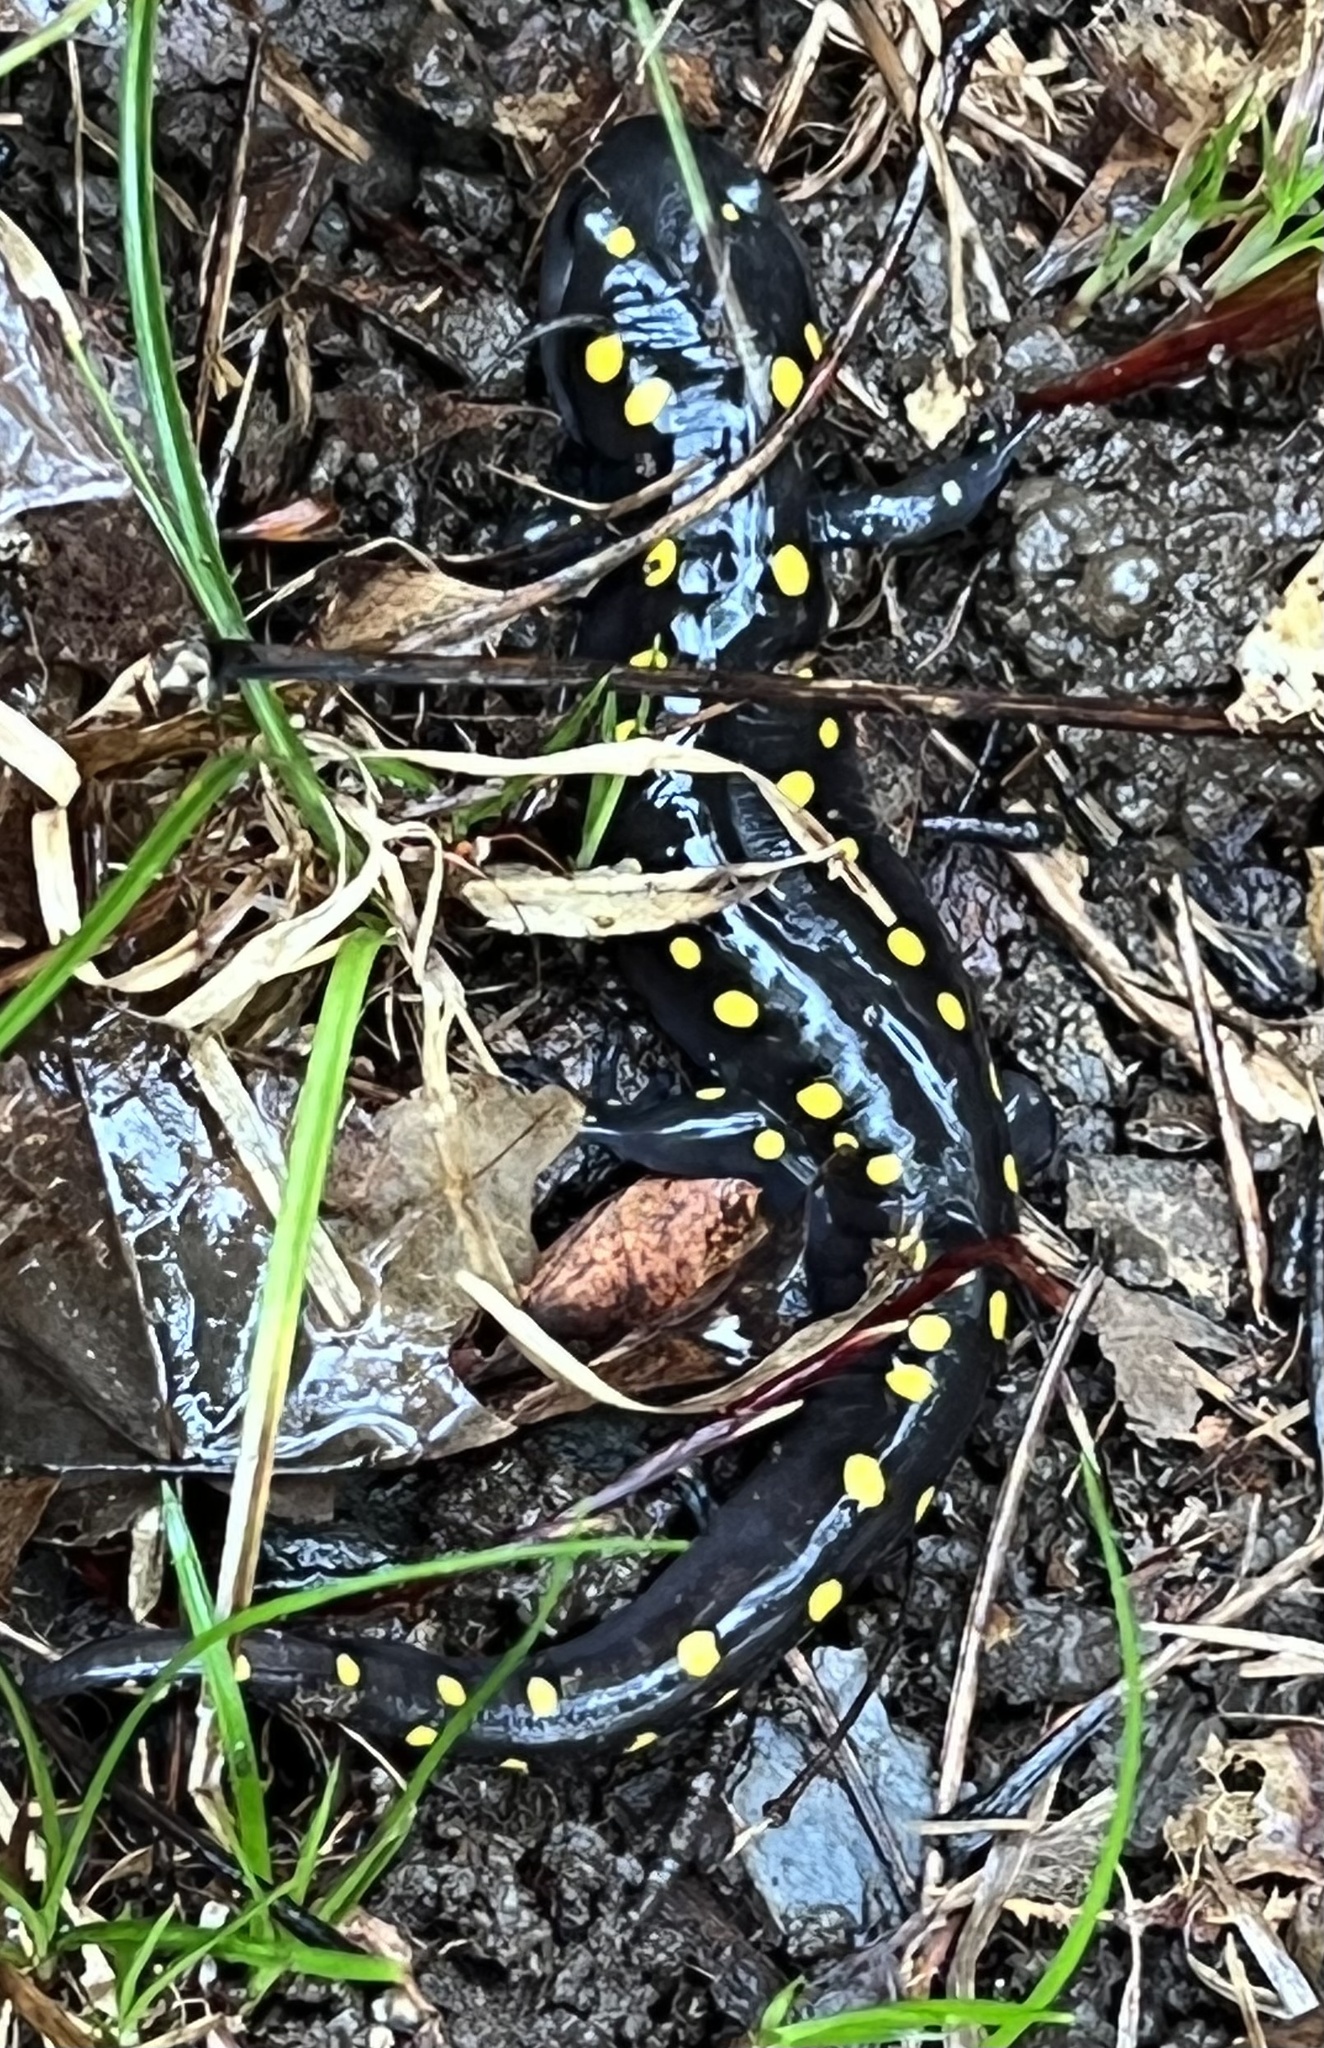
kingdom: Animalia
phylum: Chordata
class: Amphibia
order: Caudata
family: Ambystomatidae
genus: Ambystoma
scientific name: Ambystoma maculatum
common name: Spotted salamander
